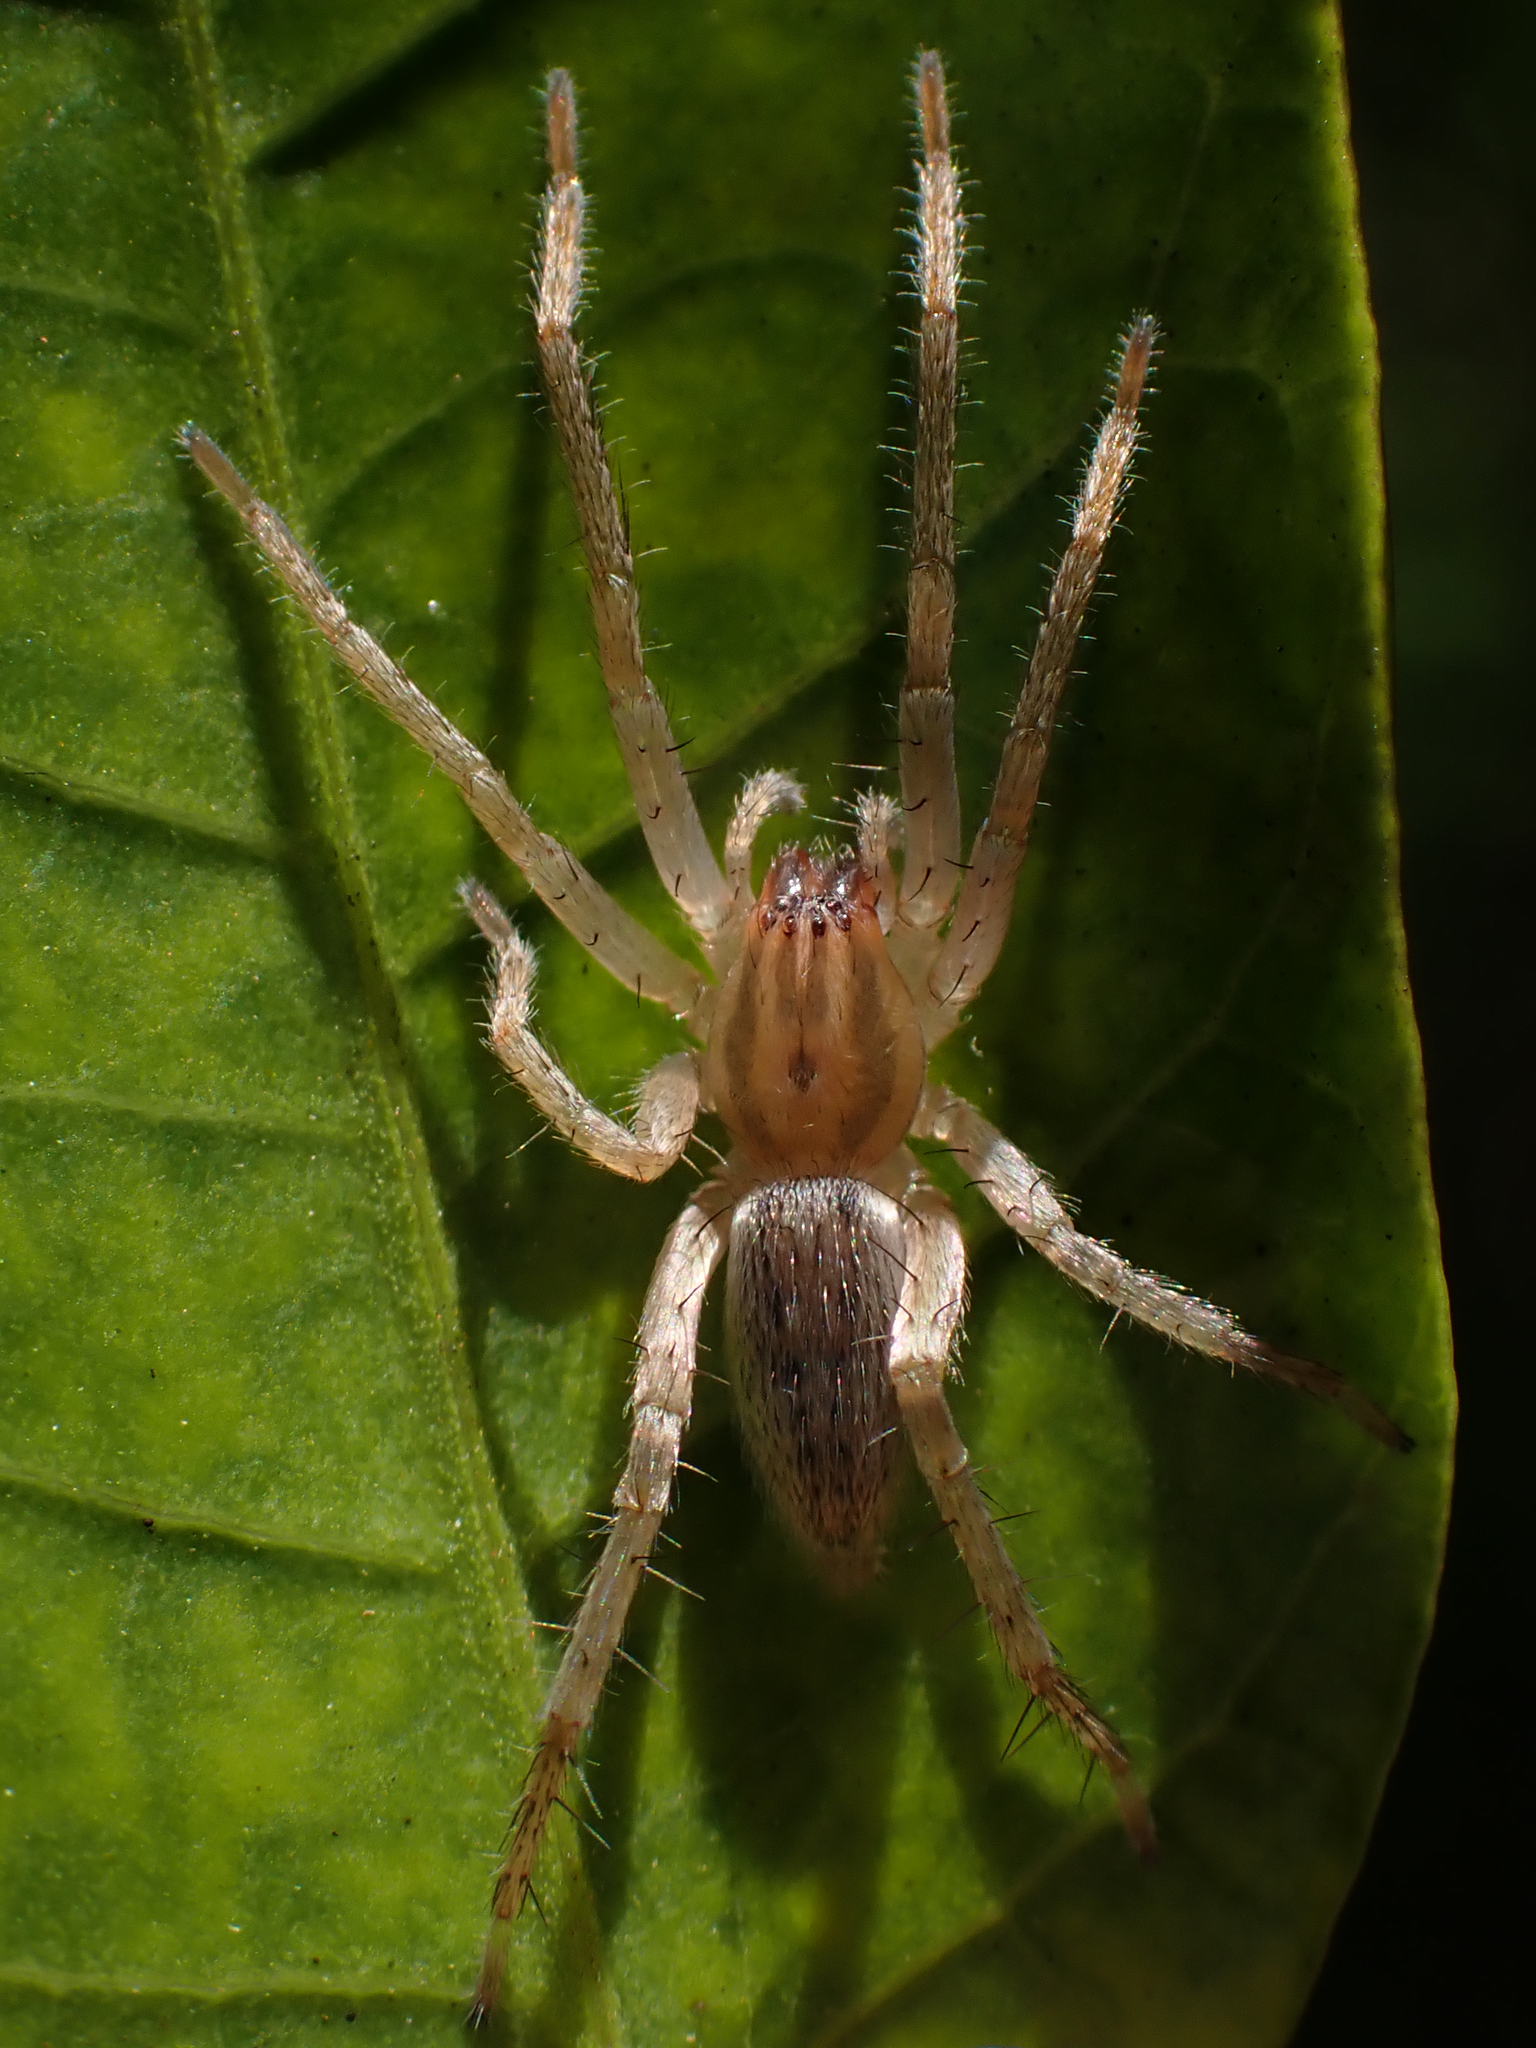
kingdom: Animalia
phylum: Arthropoda
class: Arachnida
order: Araneae
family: Anyphaenidae
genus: Hibana
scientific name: Hibana gracilis
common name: Garden ghost spider
